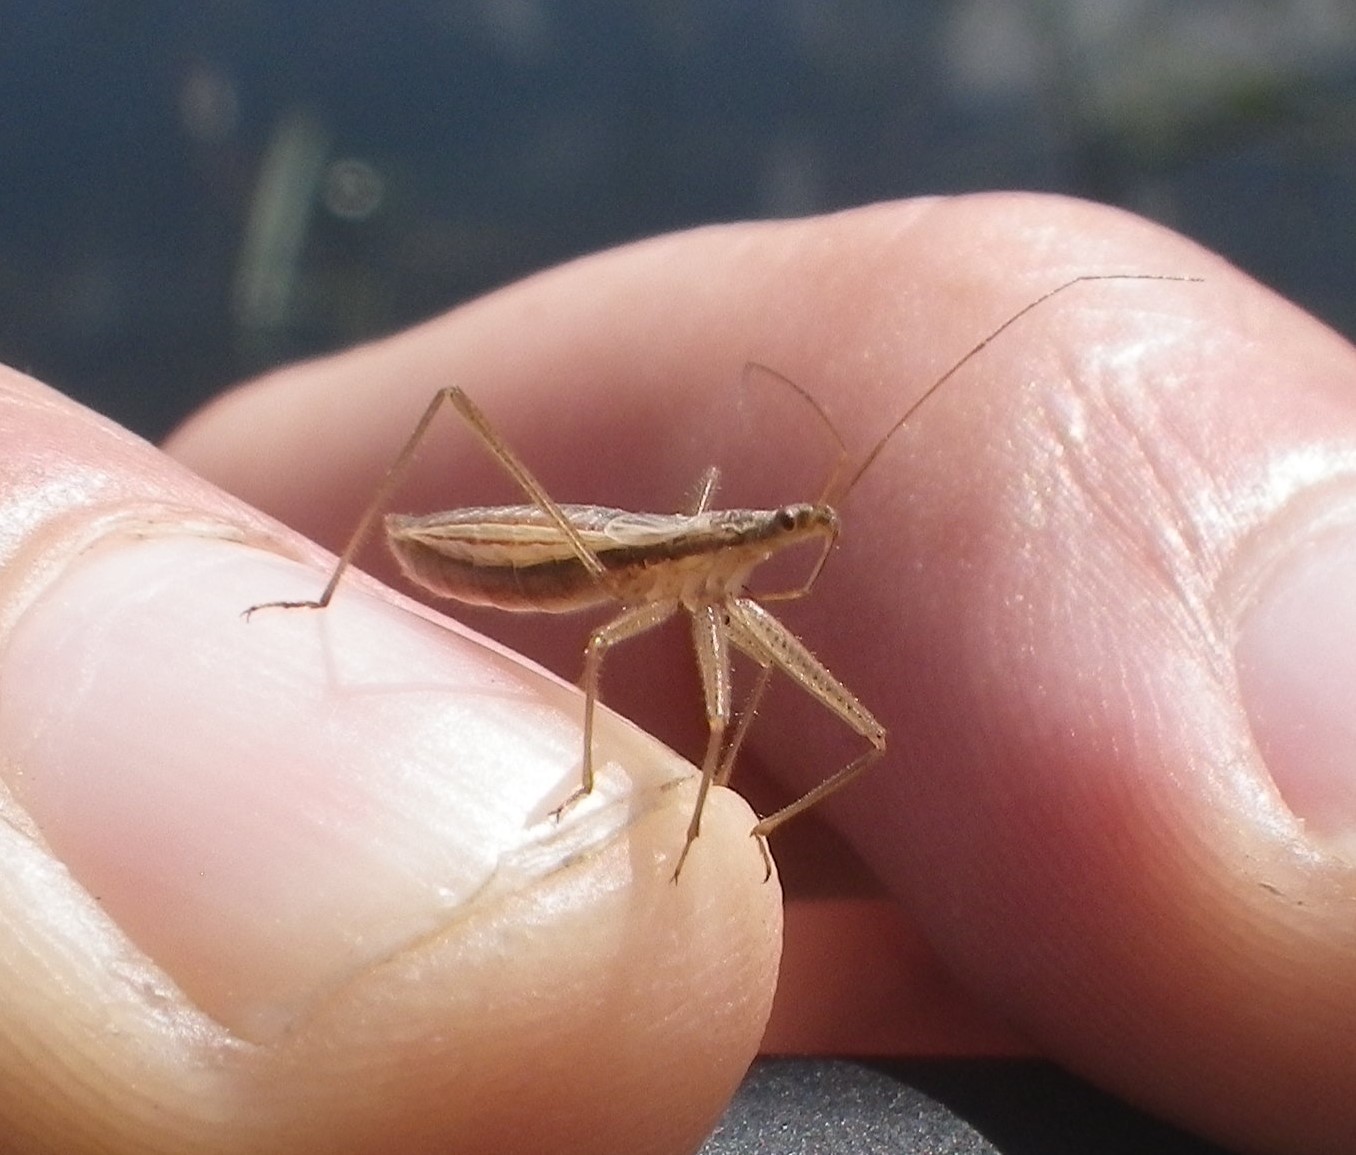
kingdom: Animalia
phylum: Arthropoda
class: Insecta
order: Hemiptera
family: Nabidae
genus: Nabis
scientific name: Nabis
